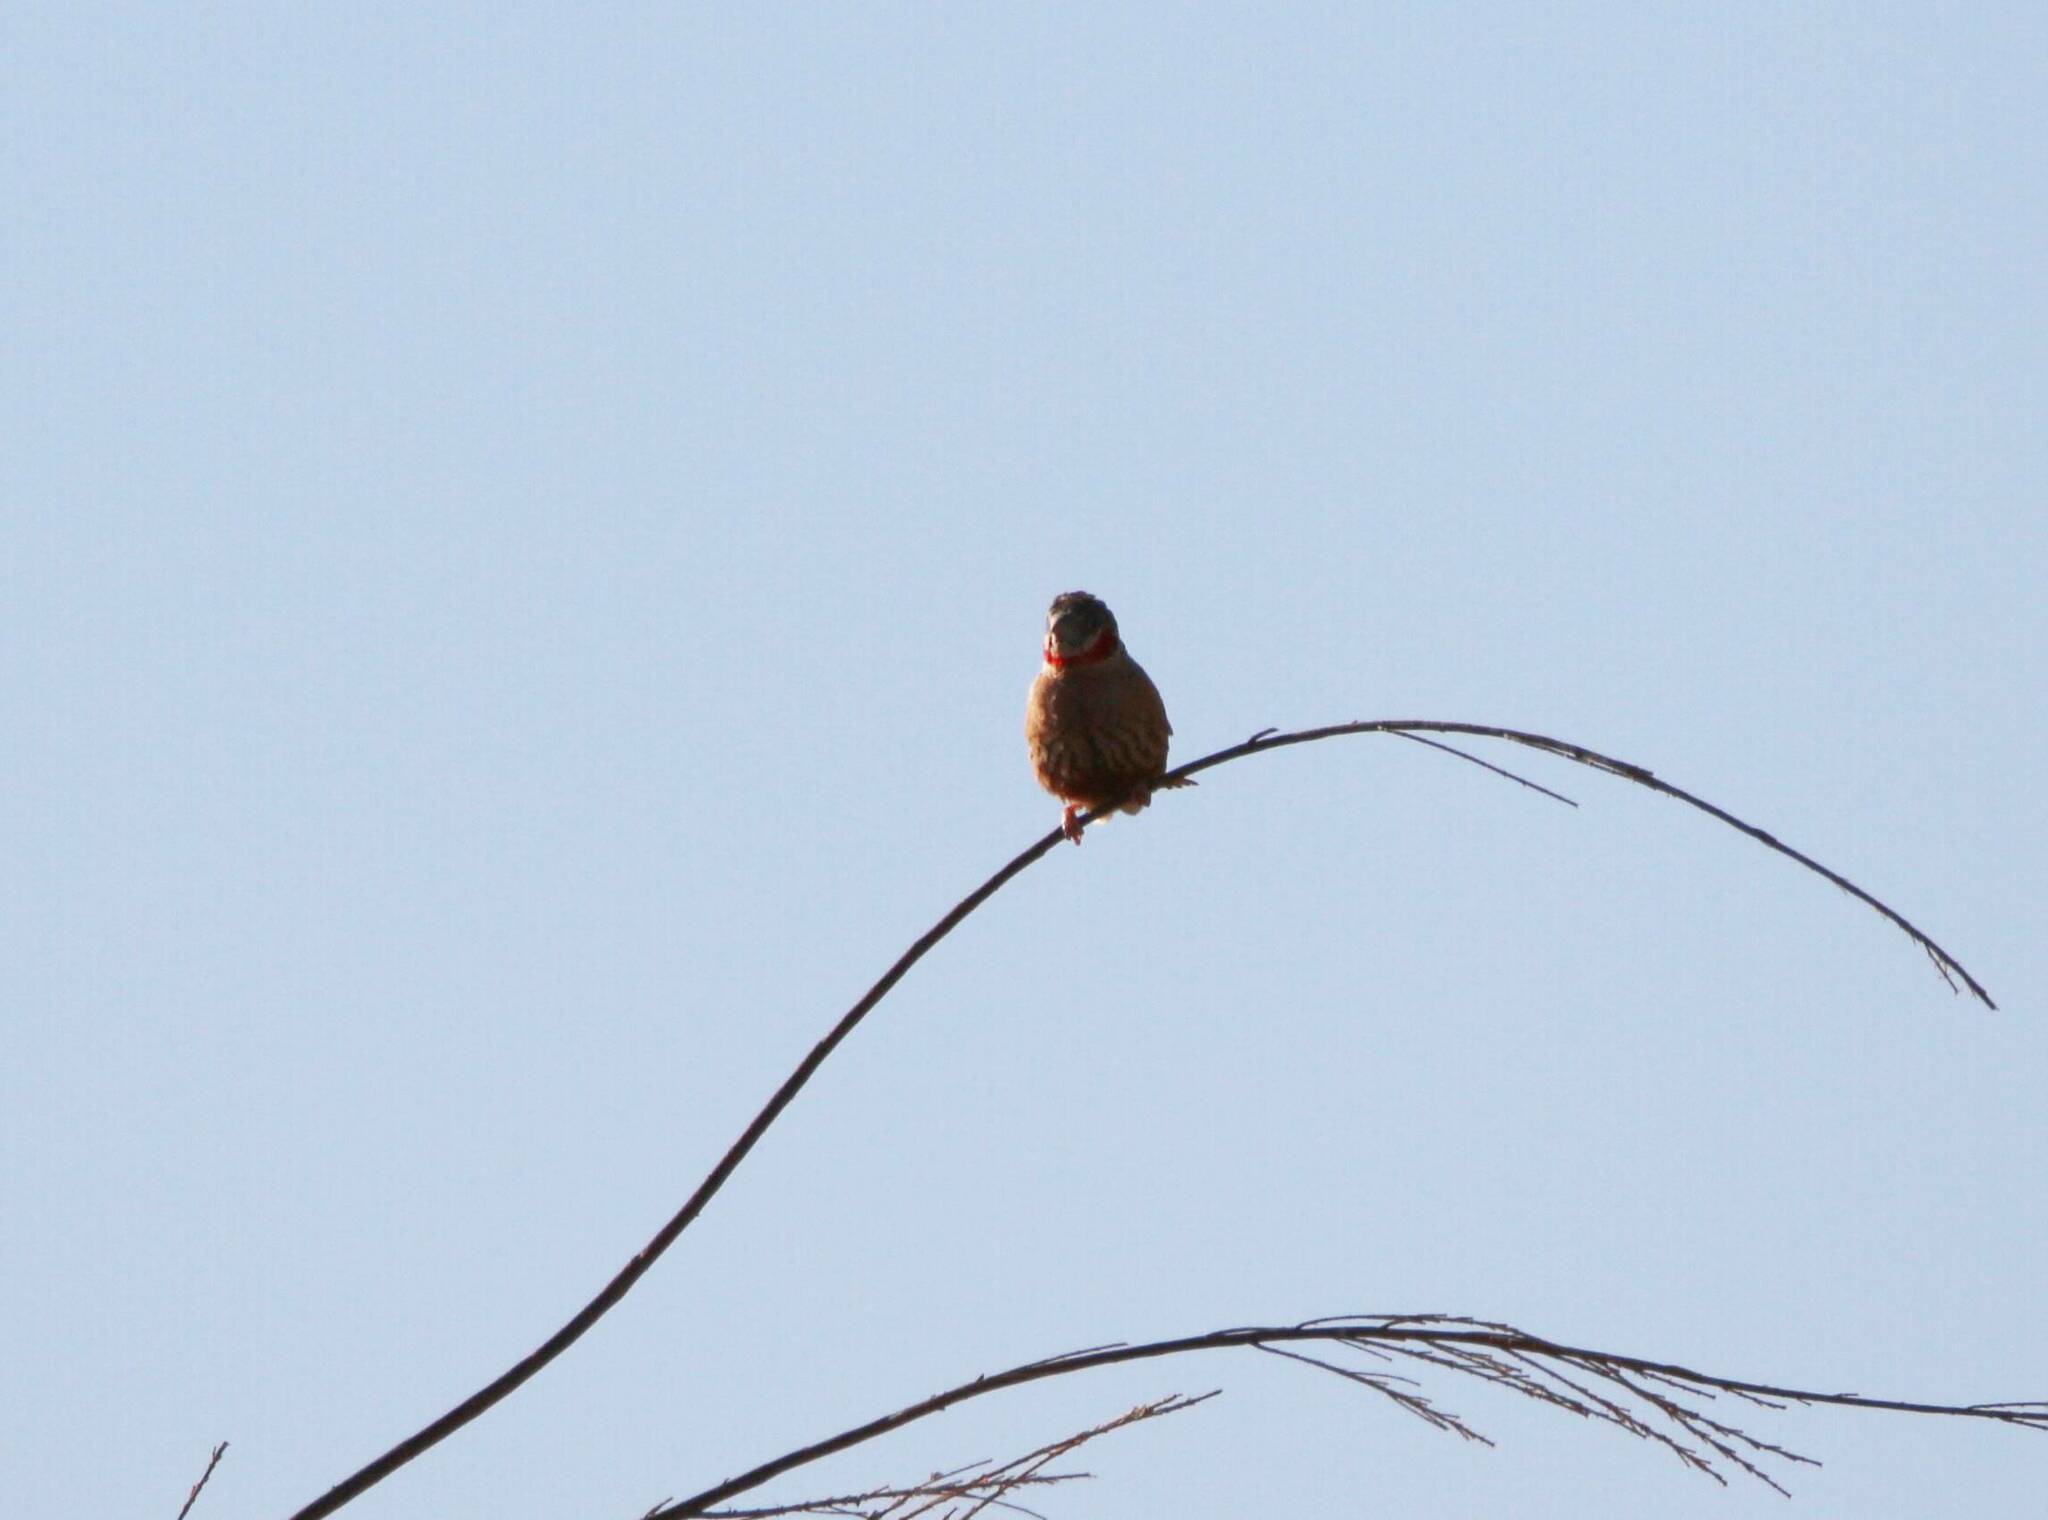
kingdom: Animalia
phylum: Chordata
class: Aves
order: Passeriformes
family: Estrildidae
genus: Amadina
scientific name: Amadina fasciata
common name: Cut-throat finch
